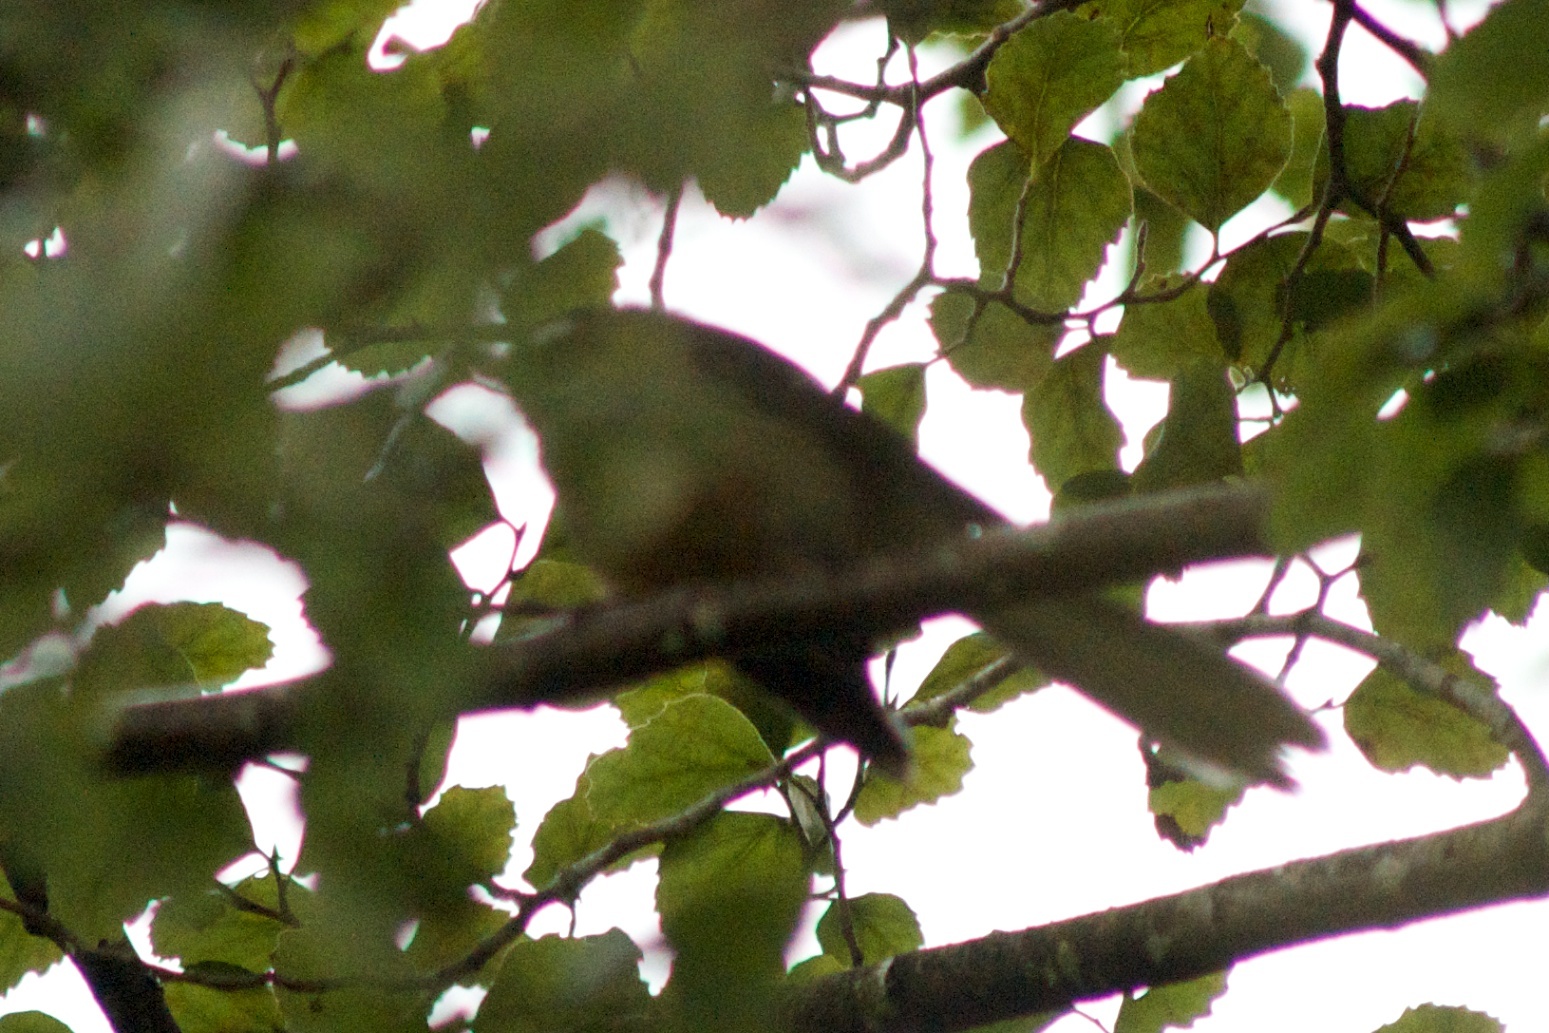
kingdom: Animalia
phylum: Chordata
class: Aves
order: Passeriformes
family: Rhipiduridae
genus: Rhipidura
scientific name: Rhipidura fuliginosa
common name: New zealand fantail
